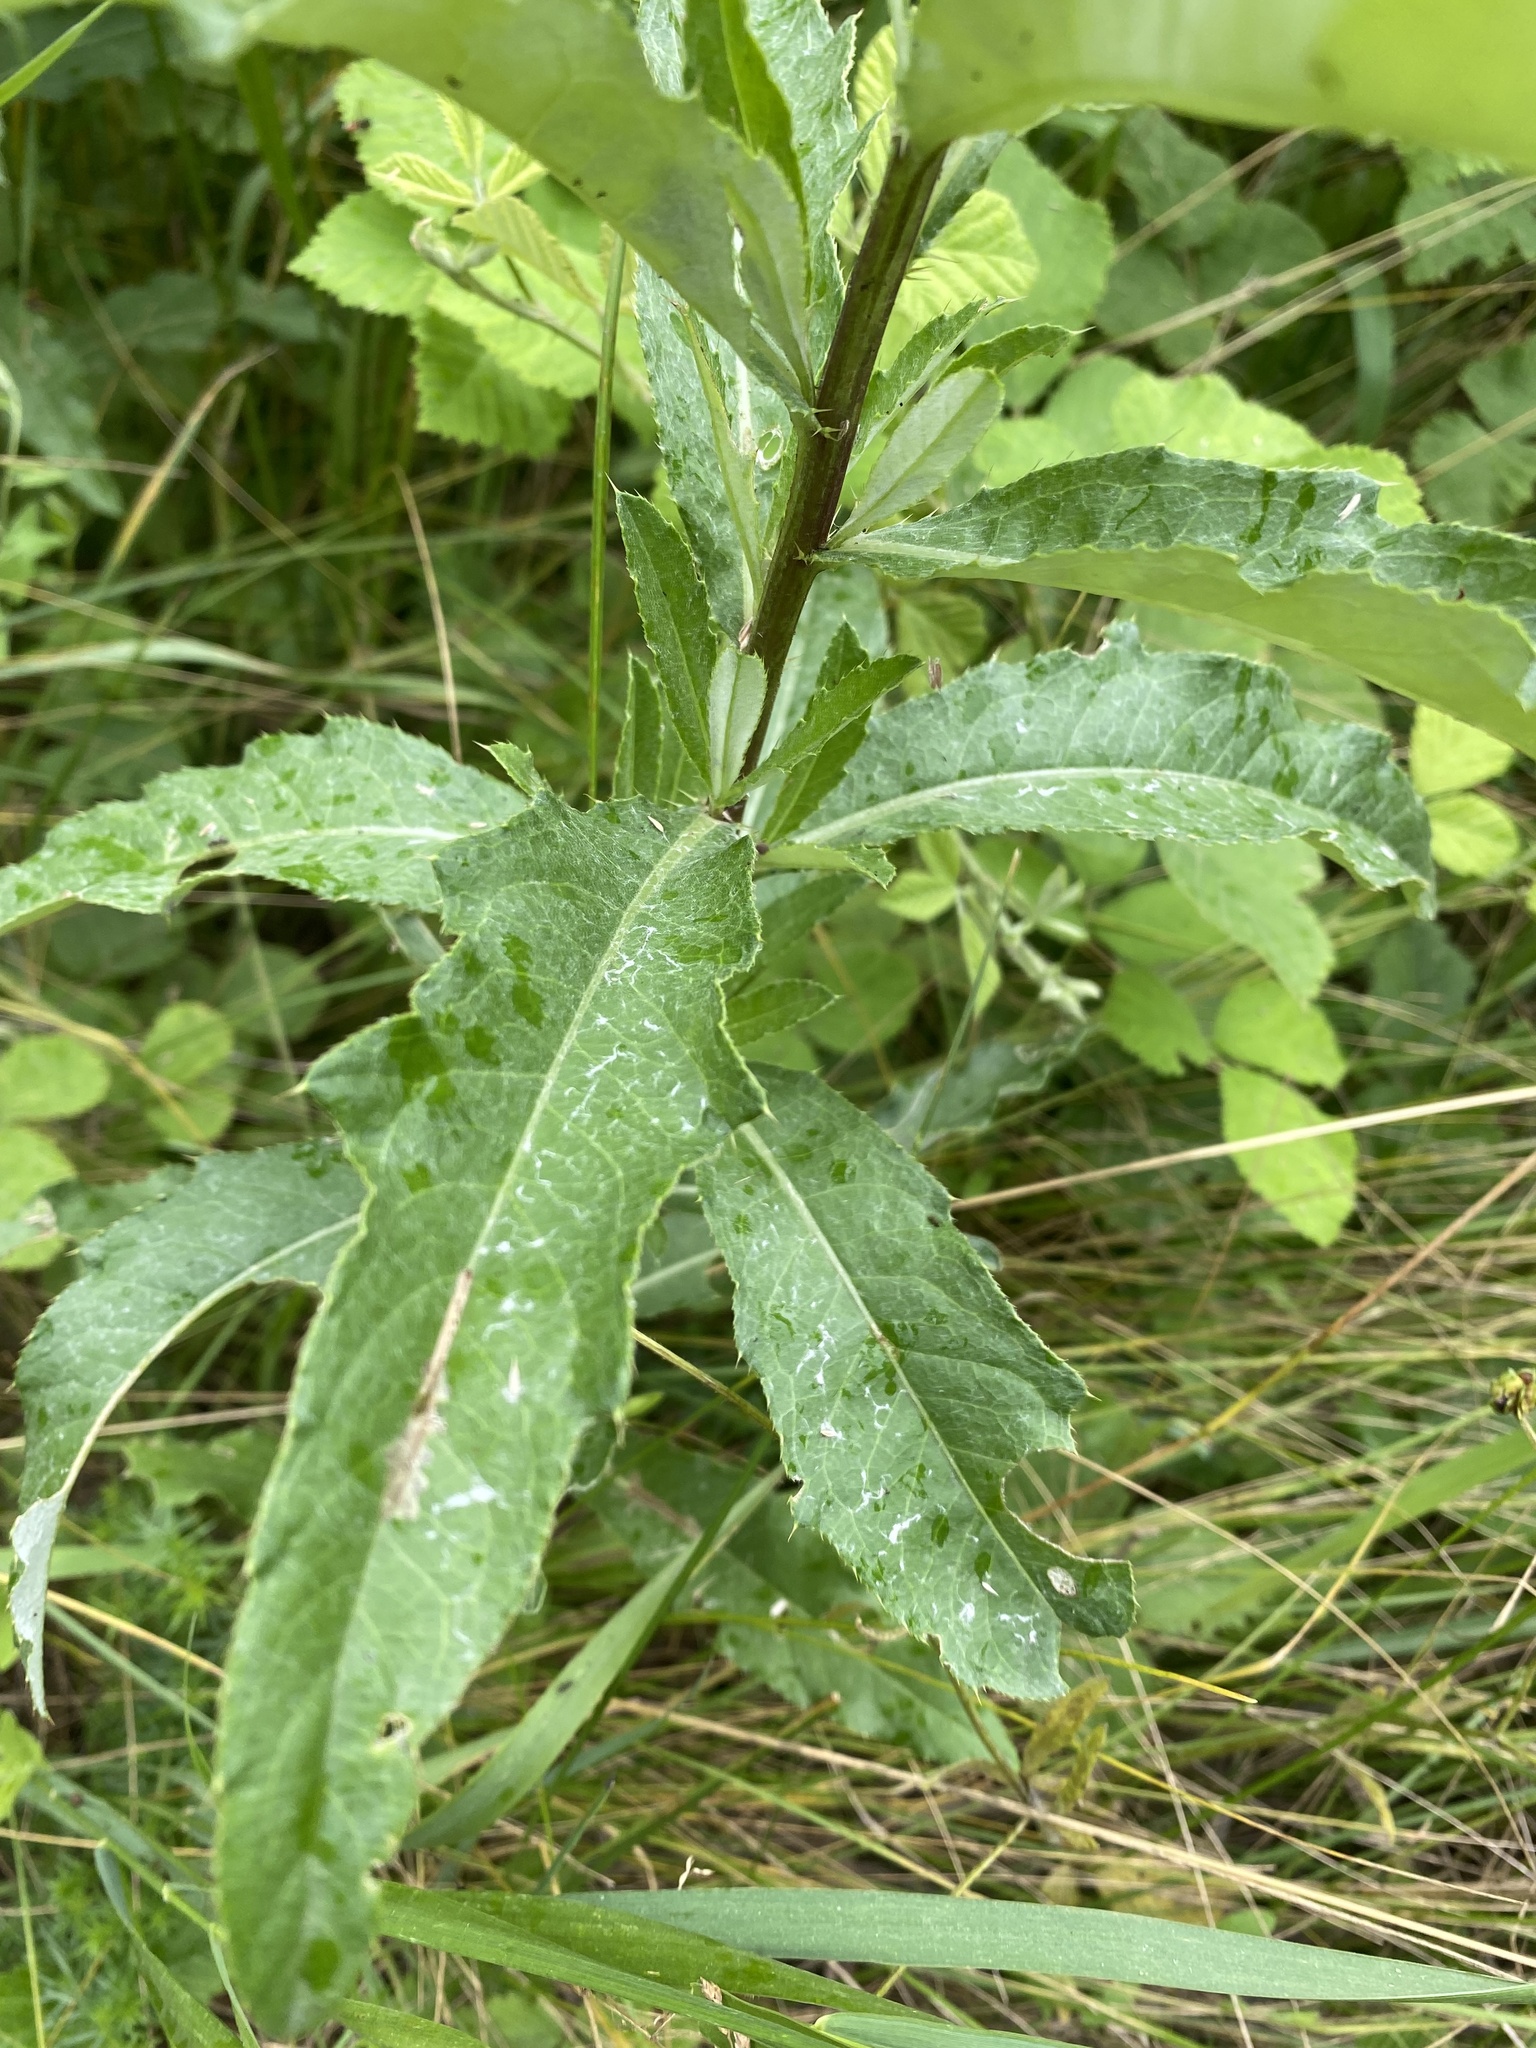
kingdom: Plantae
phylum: Tracheophyta
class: Magnoliopsida
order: Asterales
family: Asteraceae
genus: Cirsium
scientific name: Cirsium arvense
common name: Creeping thistle
